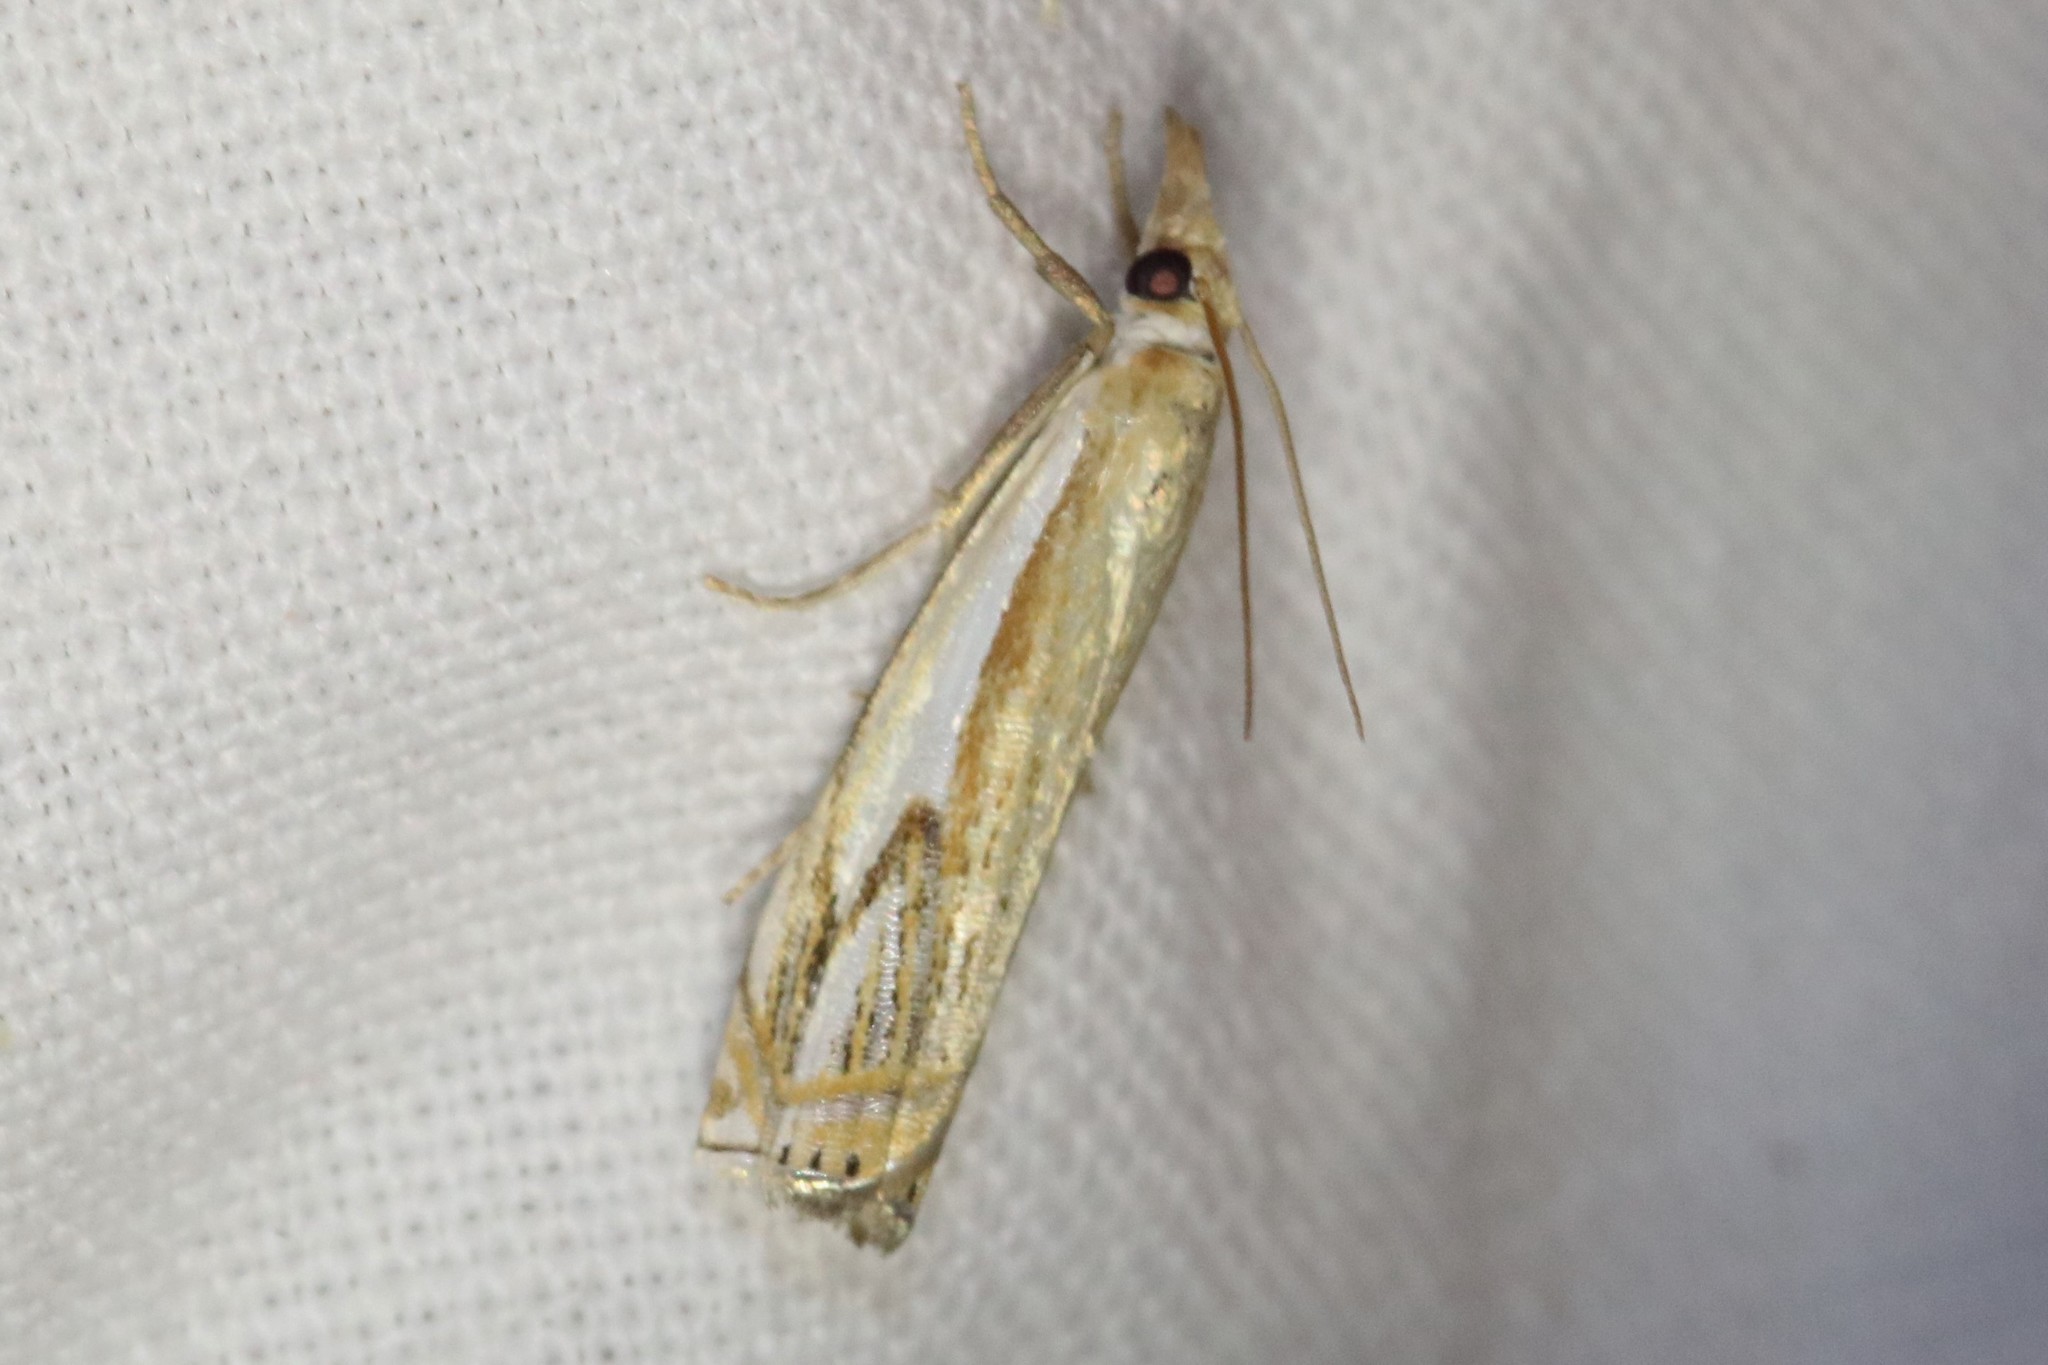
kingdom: Animalia
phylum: Arthropoda
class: Insecta
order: Lepidoptera
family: Crambidae
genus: Crambus
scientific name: Crambus agitatellus
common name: Double-banded grass-veneer
